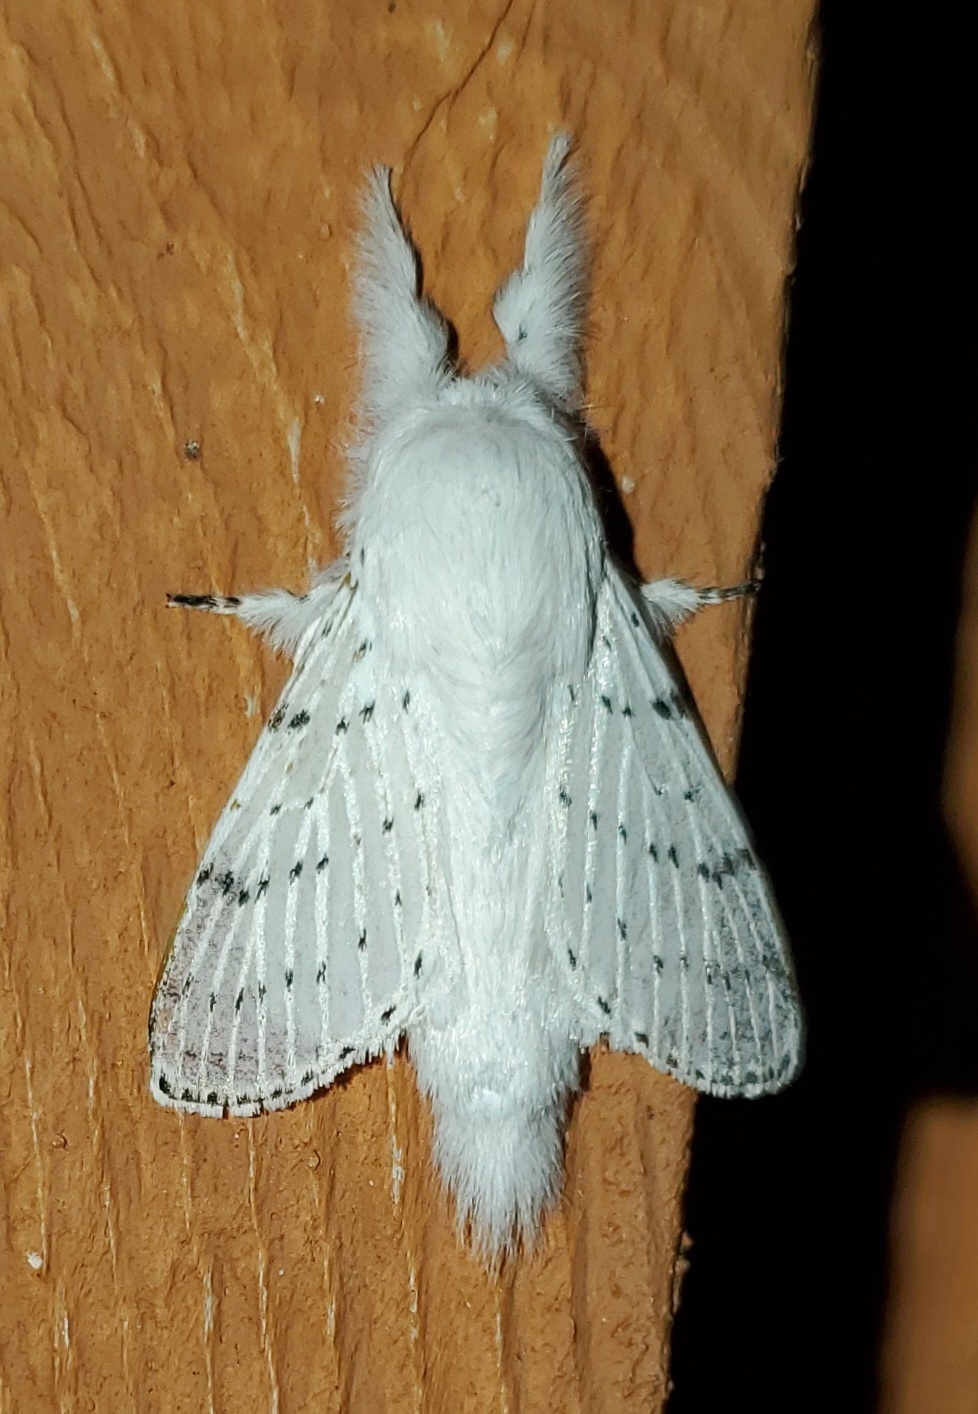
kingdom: Animalia
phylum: Arthropoda
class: Insecta
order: Lepidoptera
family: Lasiocampidae
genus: Artace
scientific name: Artace cribrarius
